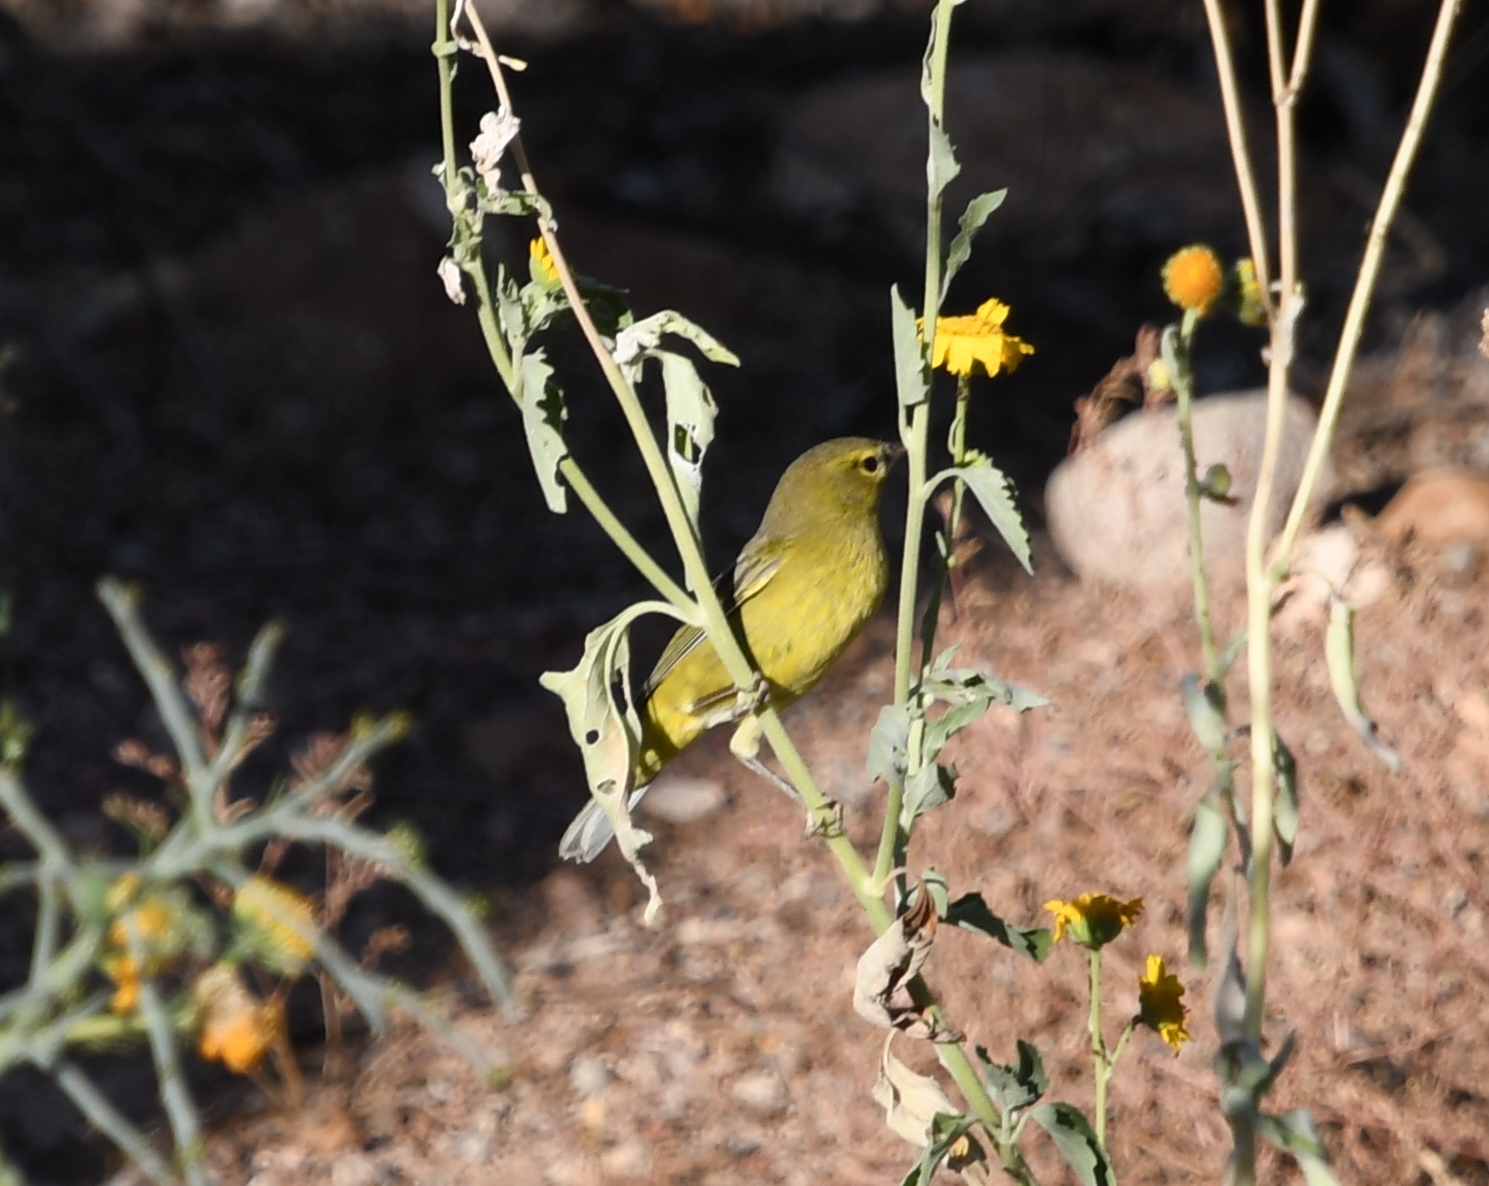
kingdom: Animalia
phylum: Chordata
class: Aves
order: Passeriformes
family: Parulidae
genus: Leiothlypis
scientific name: Leiothlypis celata
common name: Orange-crowned warbler
